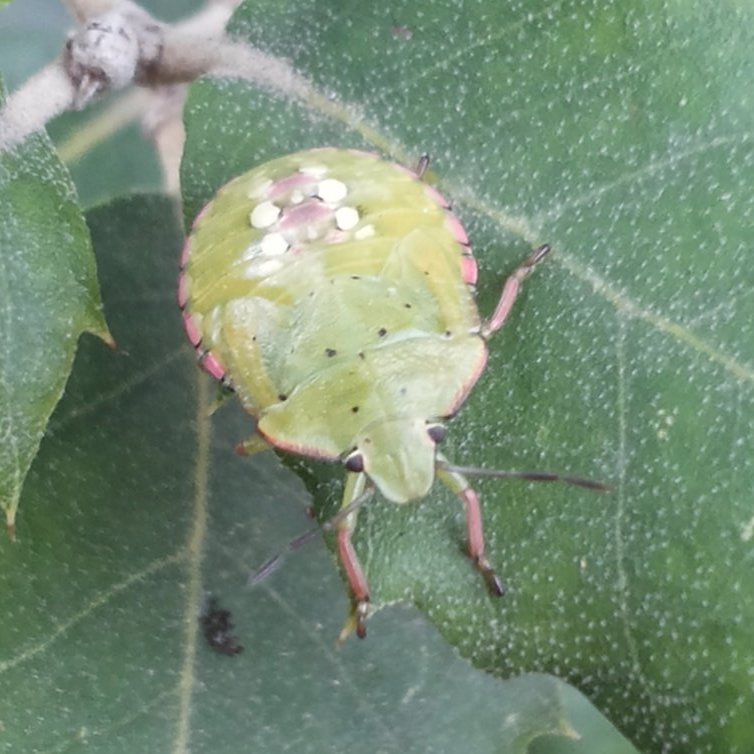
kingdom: Animalia
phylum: Arthropoda
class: Insecta
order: Hemiptera
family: Pentatomidae
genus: Nezara
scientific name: Nezara viridula
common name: Southern green stink bug
